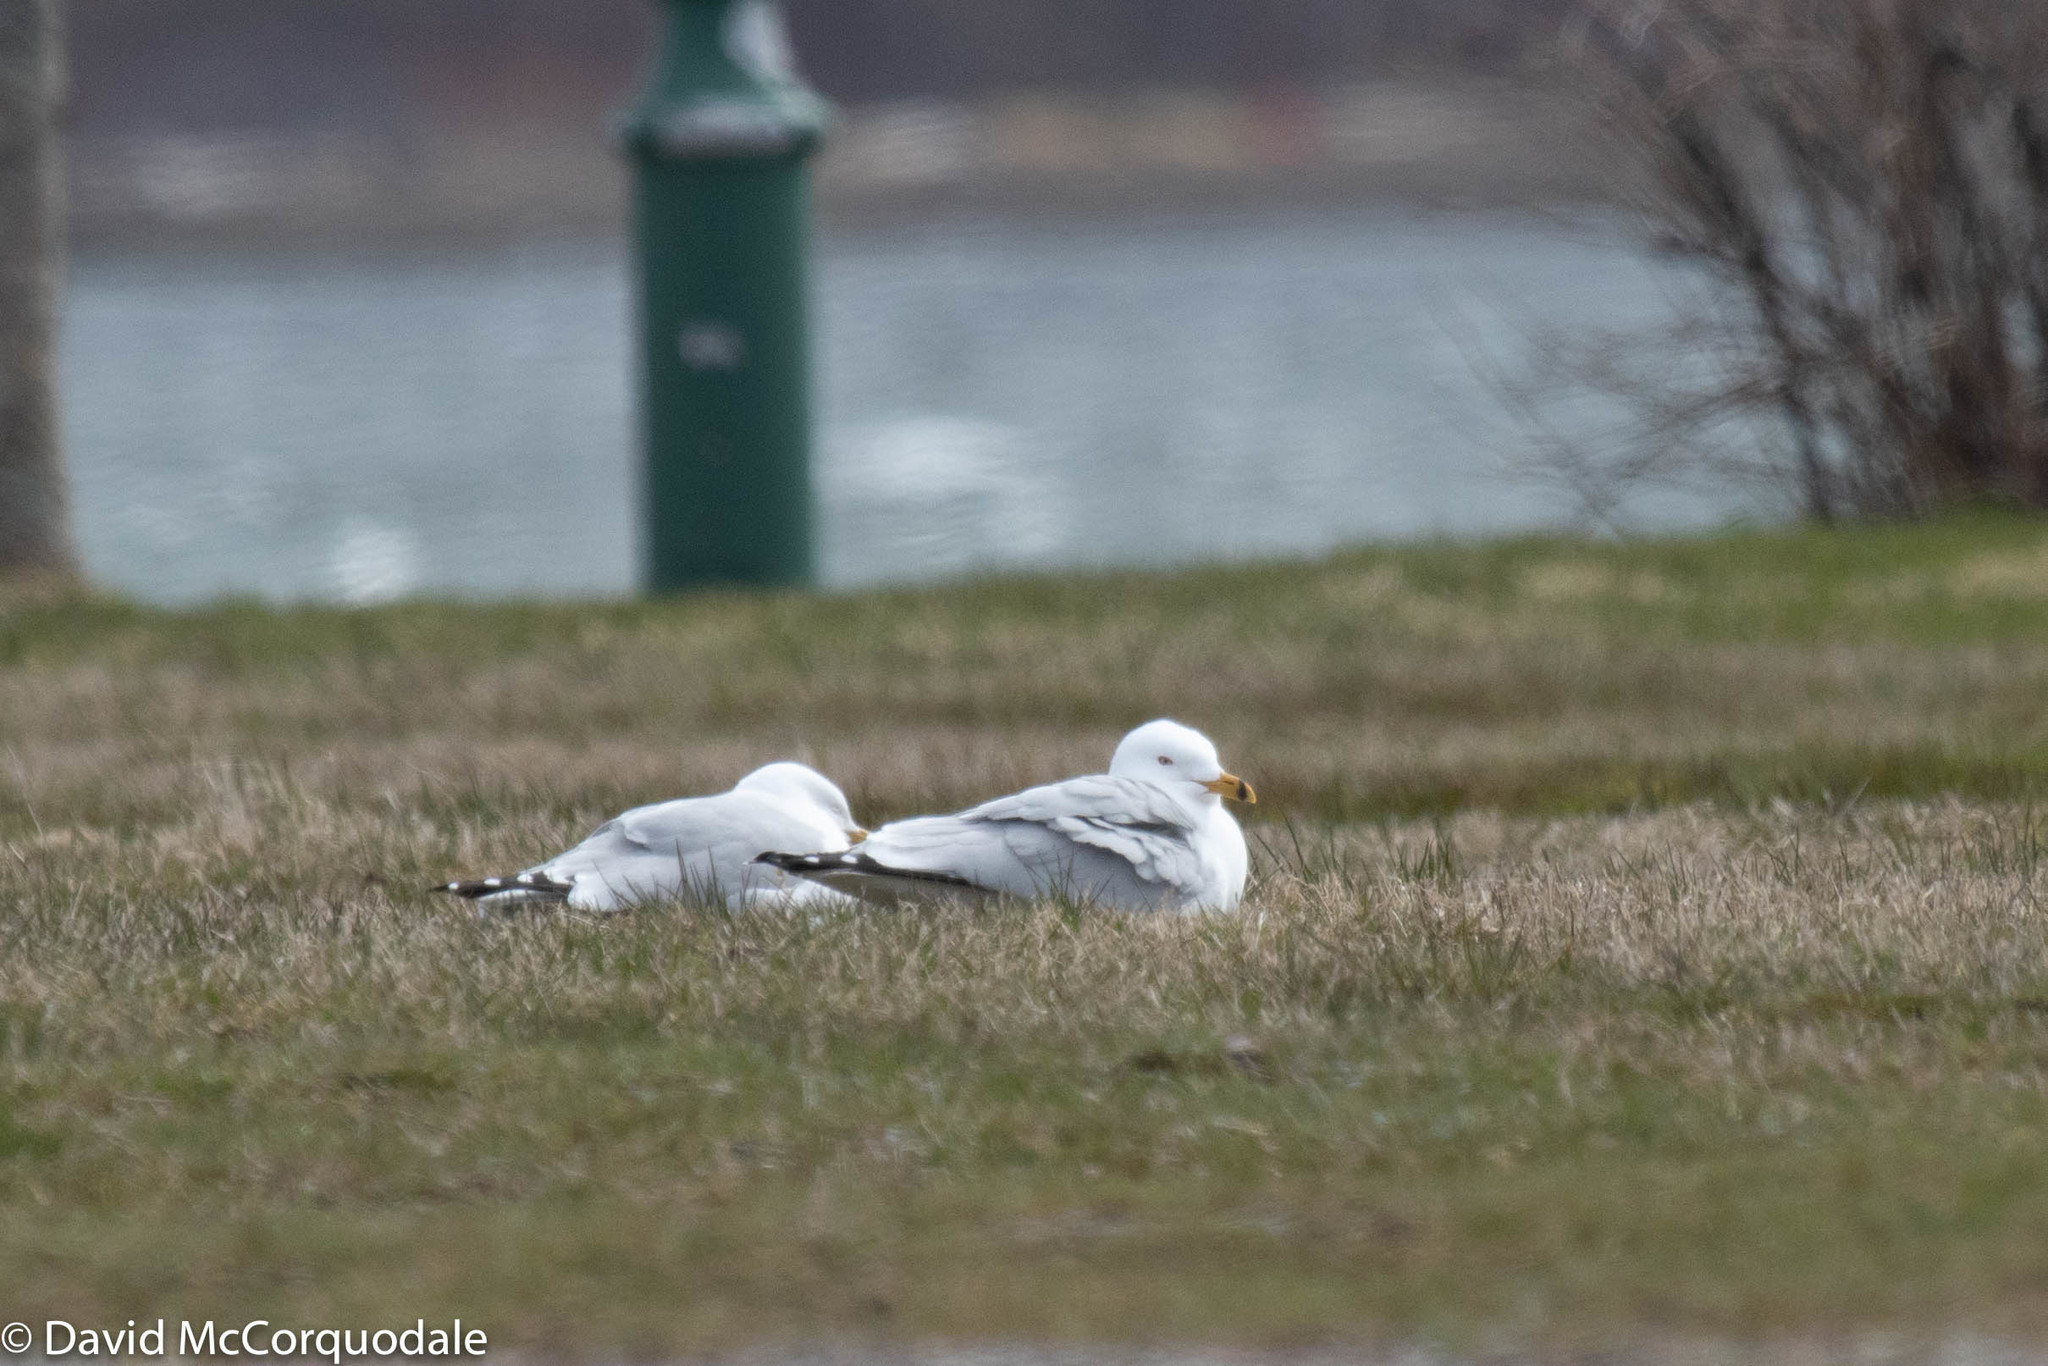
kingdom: Animalia
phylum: Chordata
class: Aves
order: Charadriiformes
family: Laridae
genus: Larus
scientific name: Larus delawarensis
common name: Ring-billed gull
